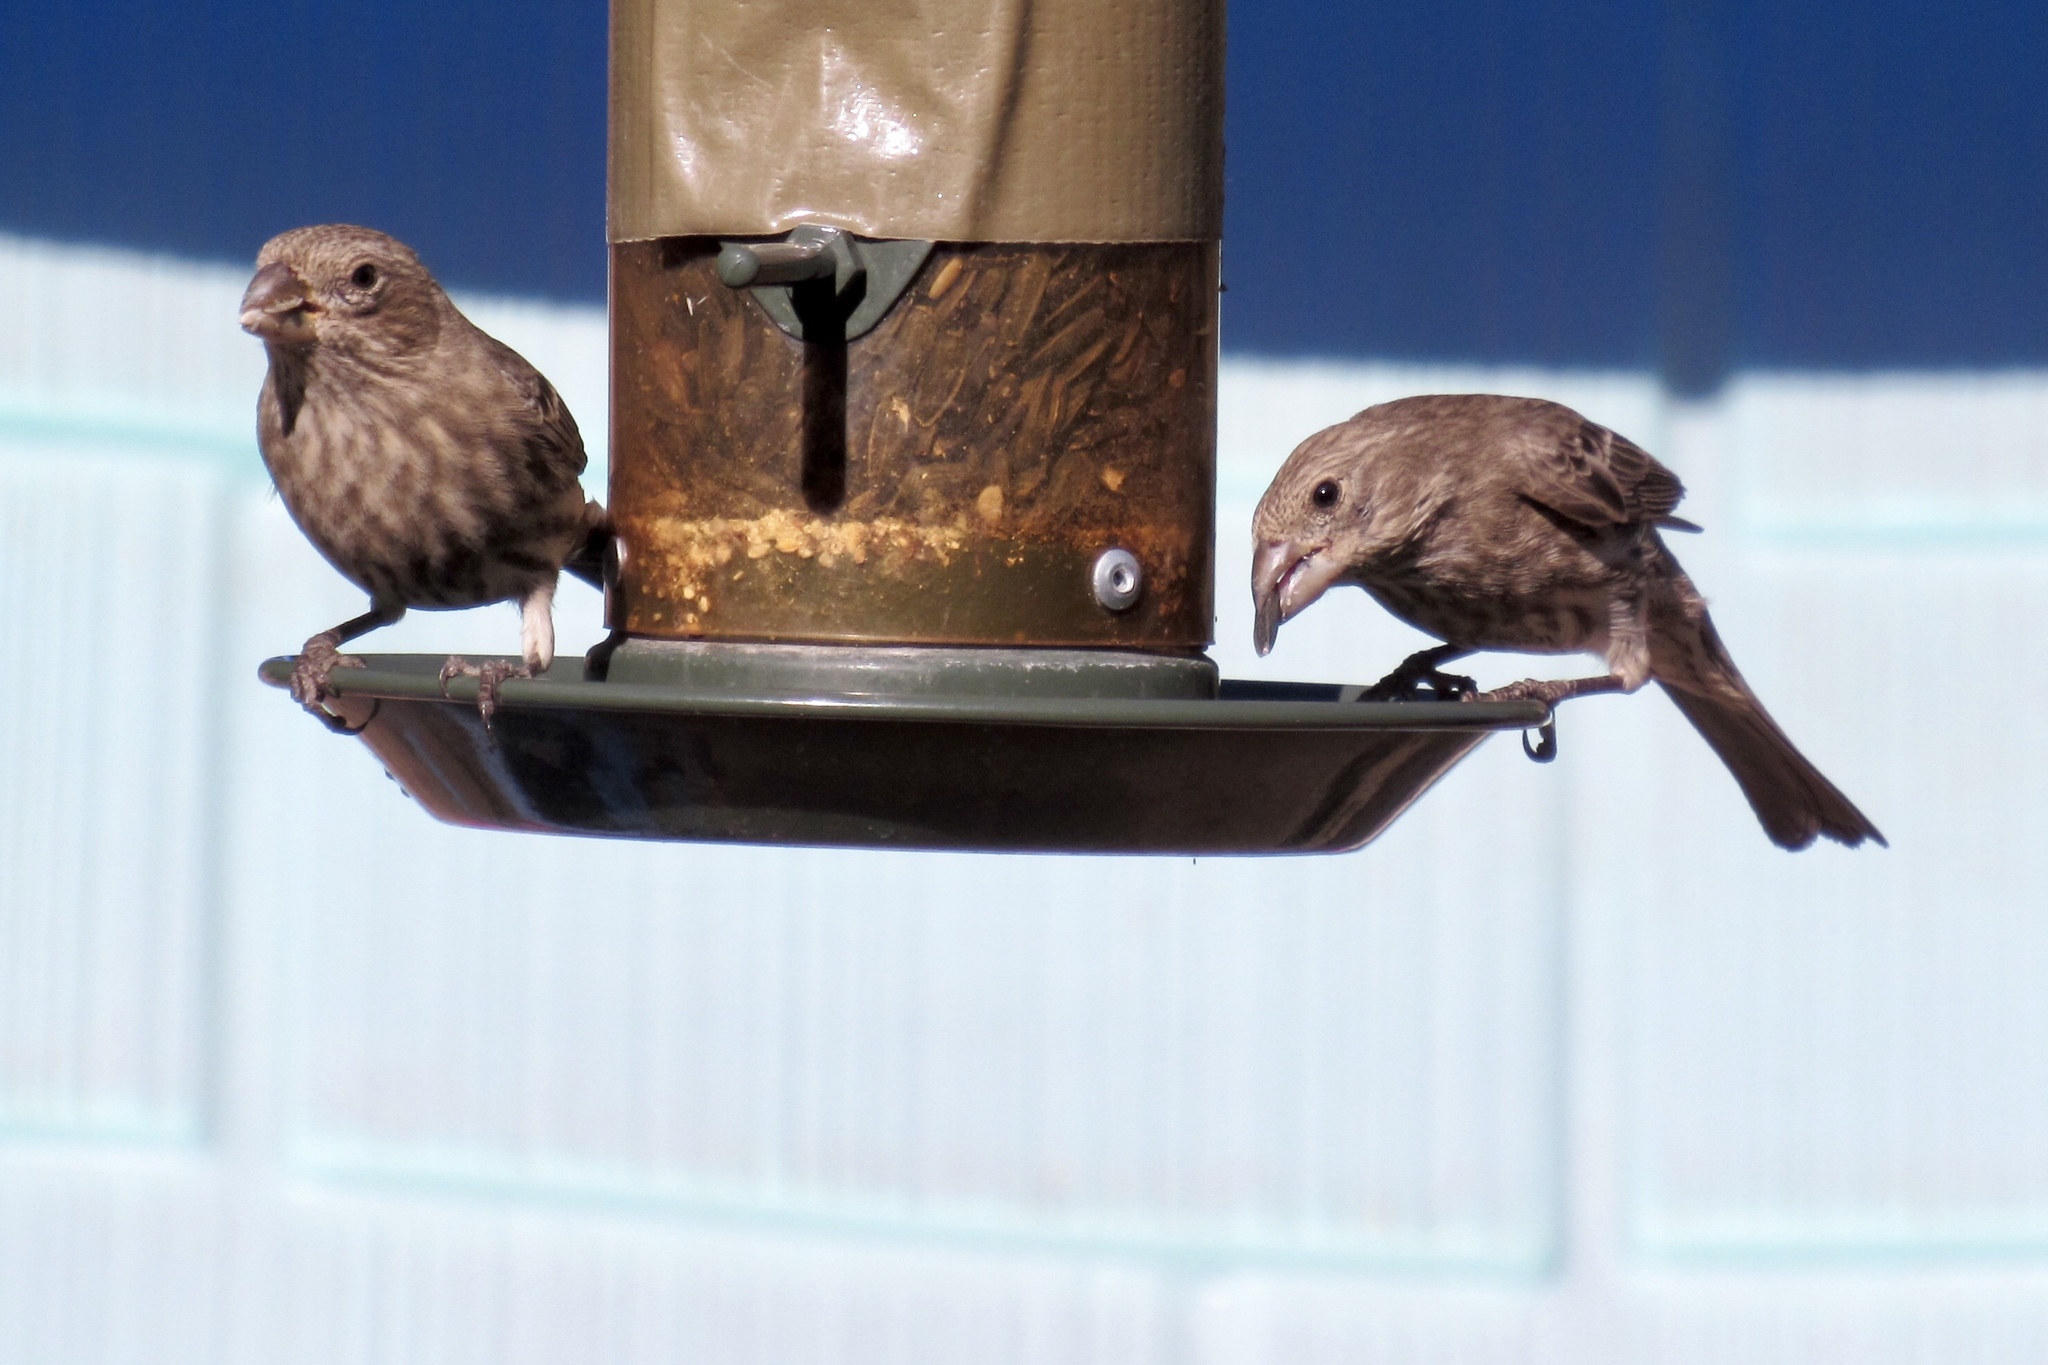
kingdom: Animalia
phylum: Chordata
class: Aves
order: Passeriformes
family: Fringillidae
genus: Haemorhous
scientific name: Haemorhous mexicanus
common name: House finch
